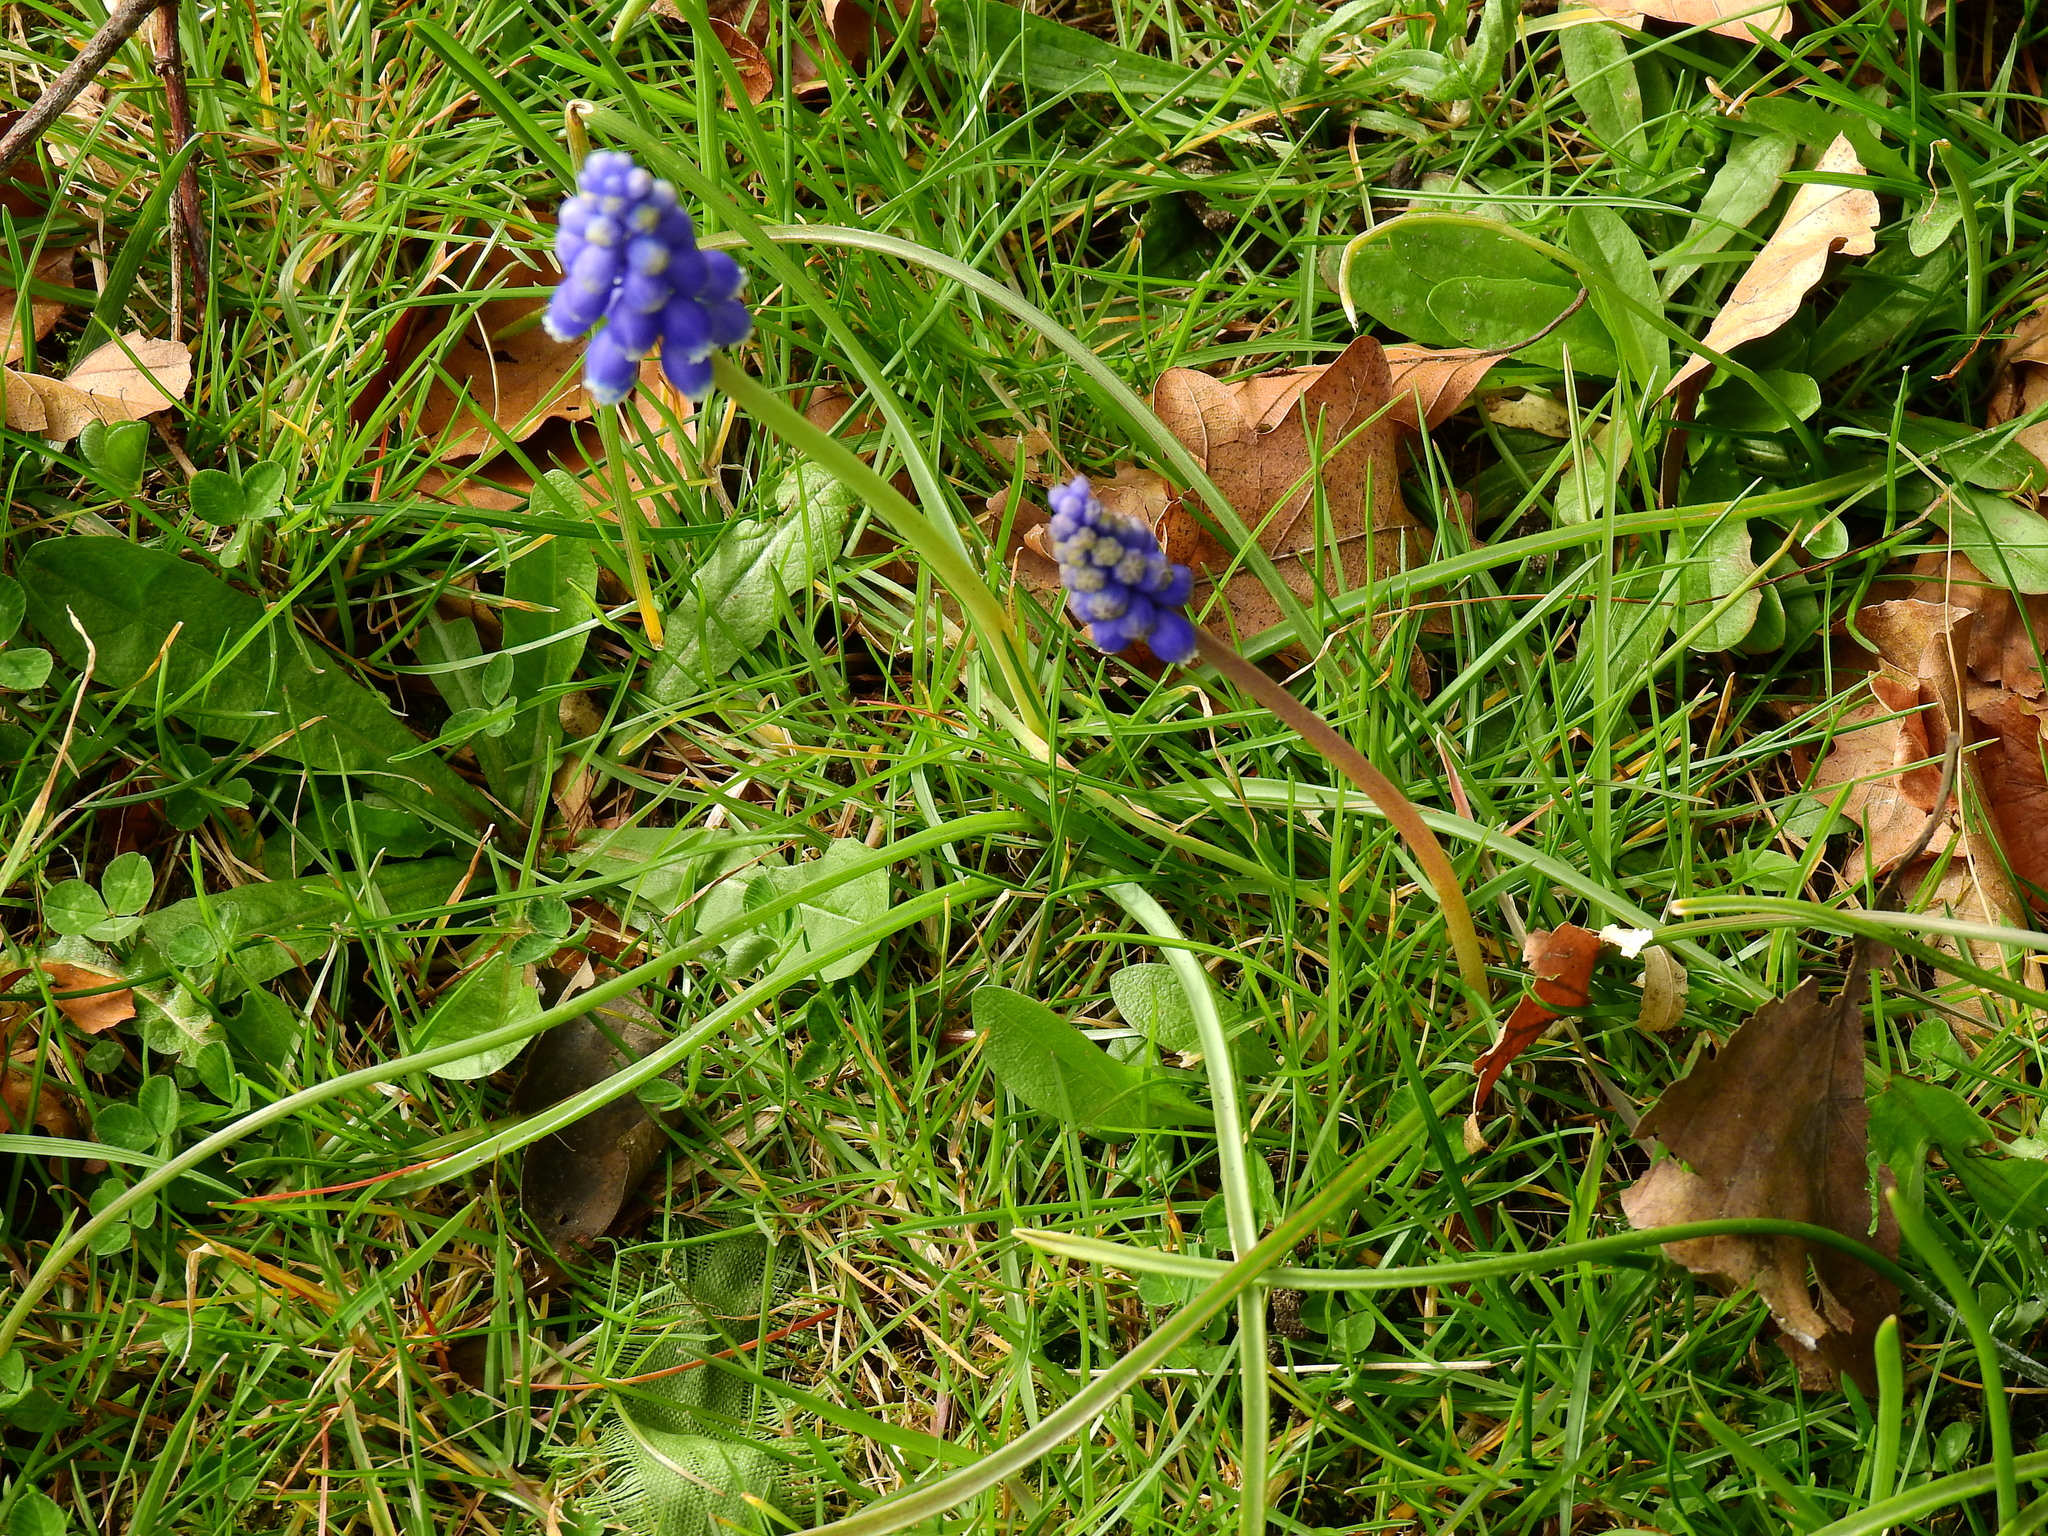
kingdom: Plantae
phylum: Tracheophyta
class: Liliopsida
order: Asparagales
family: Asparagaceae
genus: Muscari
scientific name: Muscari armeniacum
